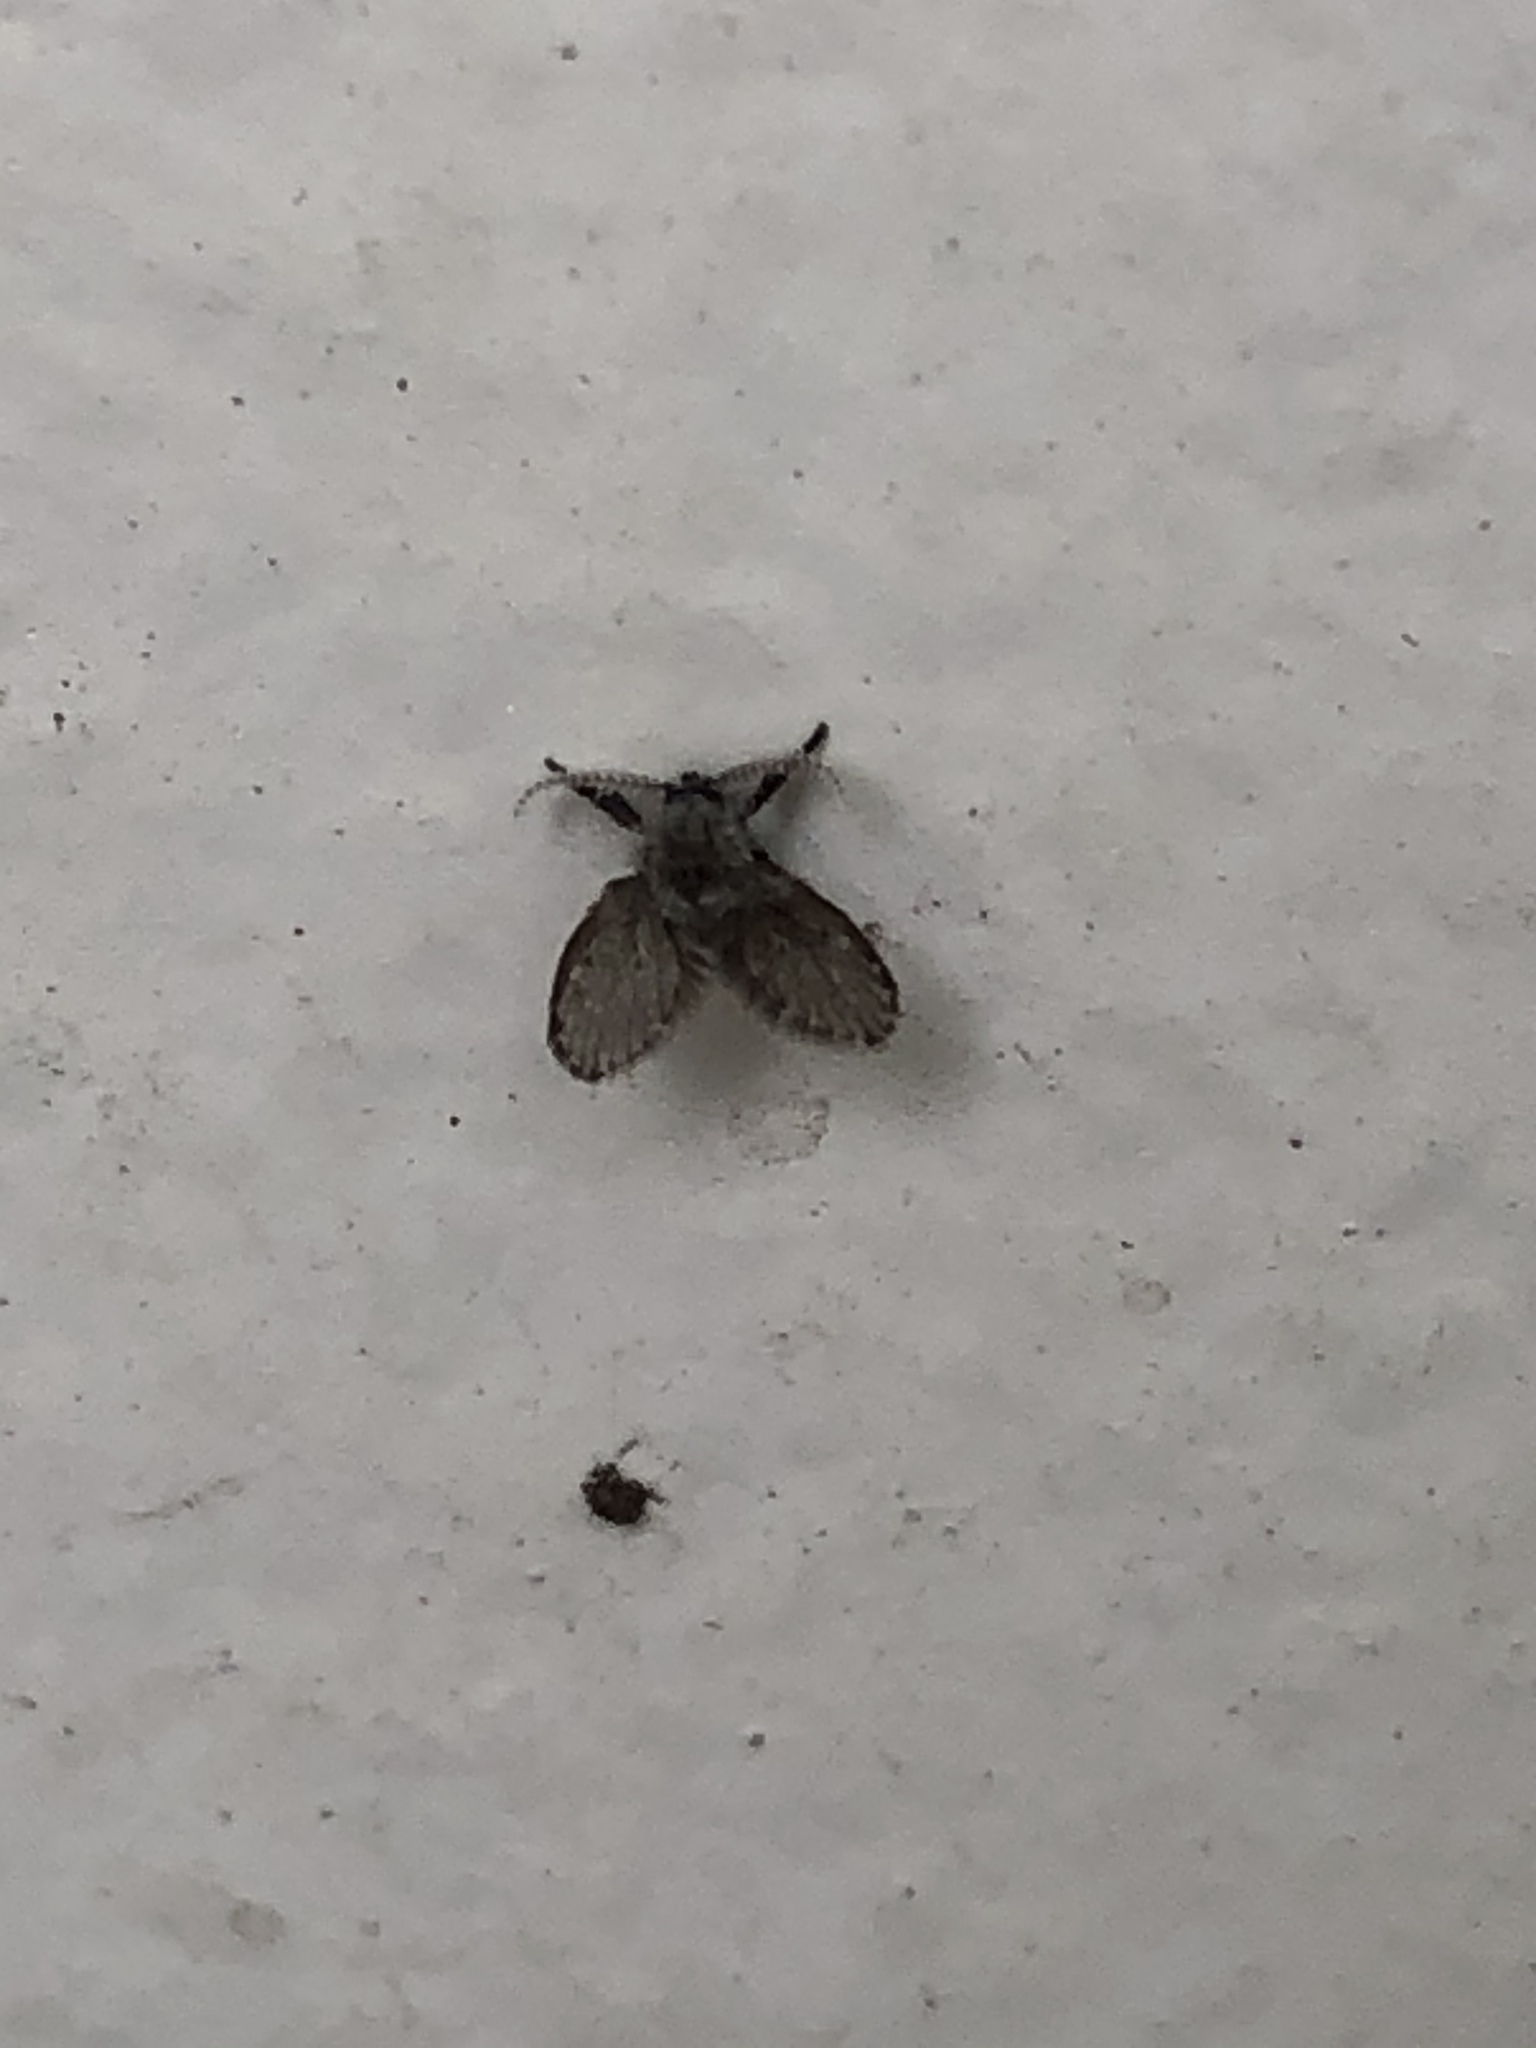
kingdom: Animalia
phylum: Arthropoda
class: Insecta
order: Diptera
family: Psychodidae
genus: Clogmia
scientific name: Clogmia albipunctatus
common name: White-spotted moth fly
